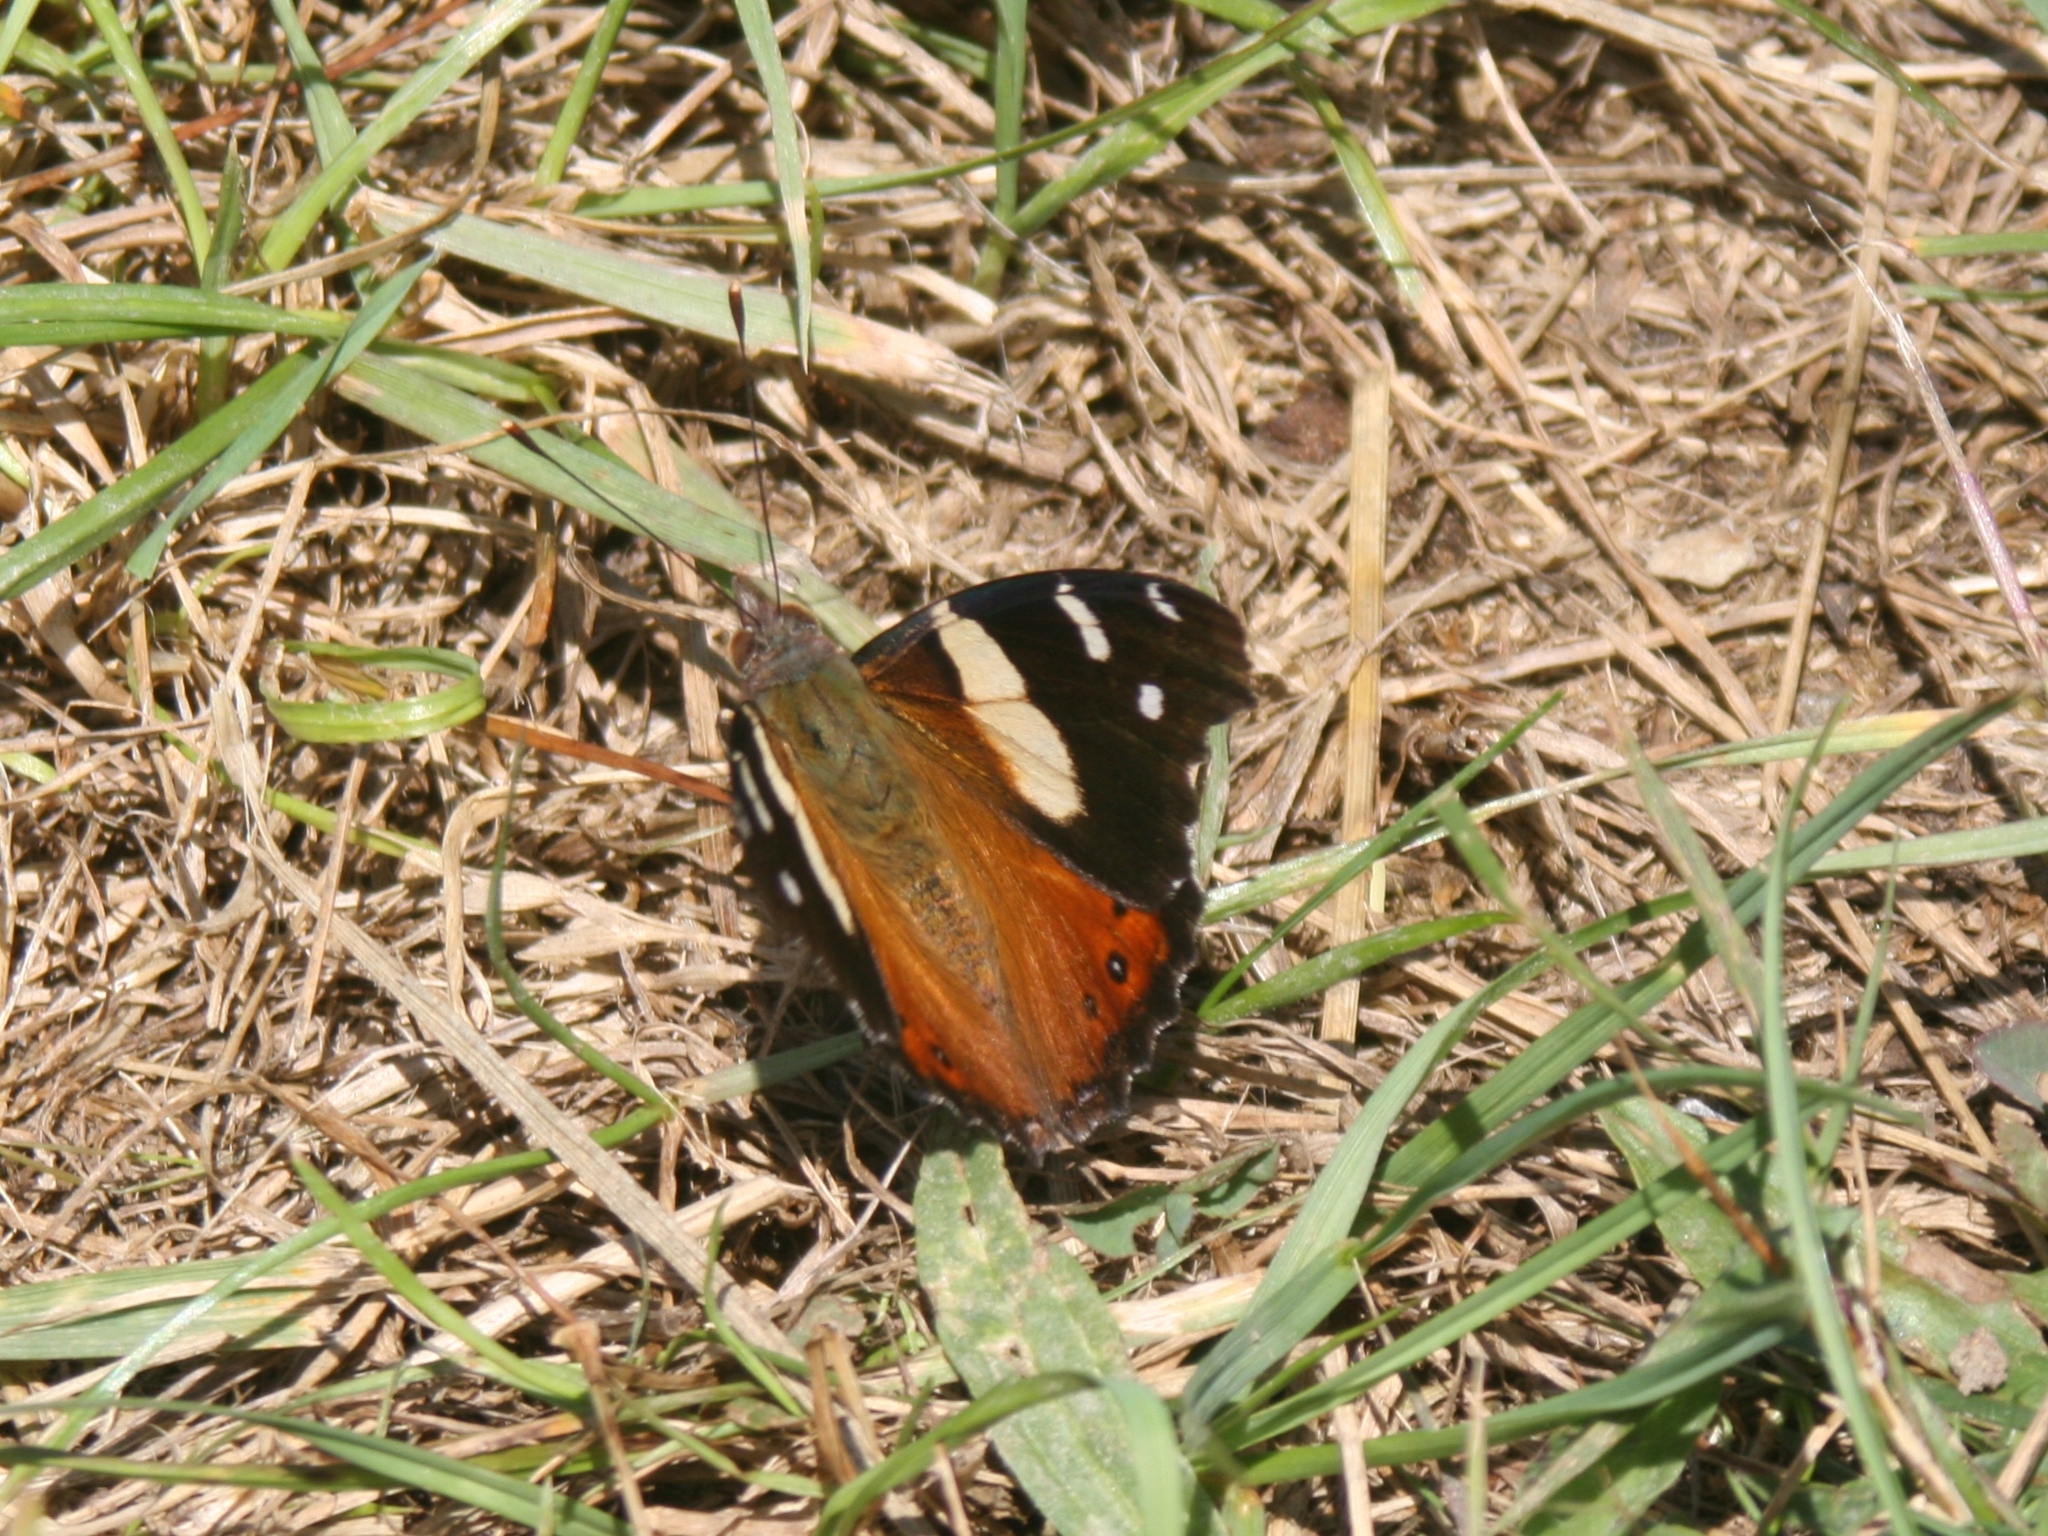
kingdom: Animalia
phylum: Arthropoda
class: Insecta
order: Lepidoptera
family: Nymphalidae
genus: Vanessa
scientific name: Vanessa itea
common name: Yellow admiral
